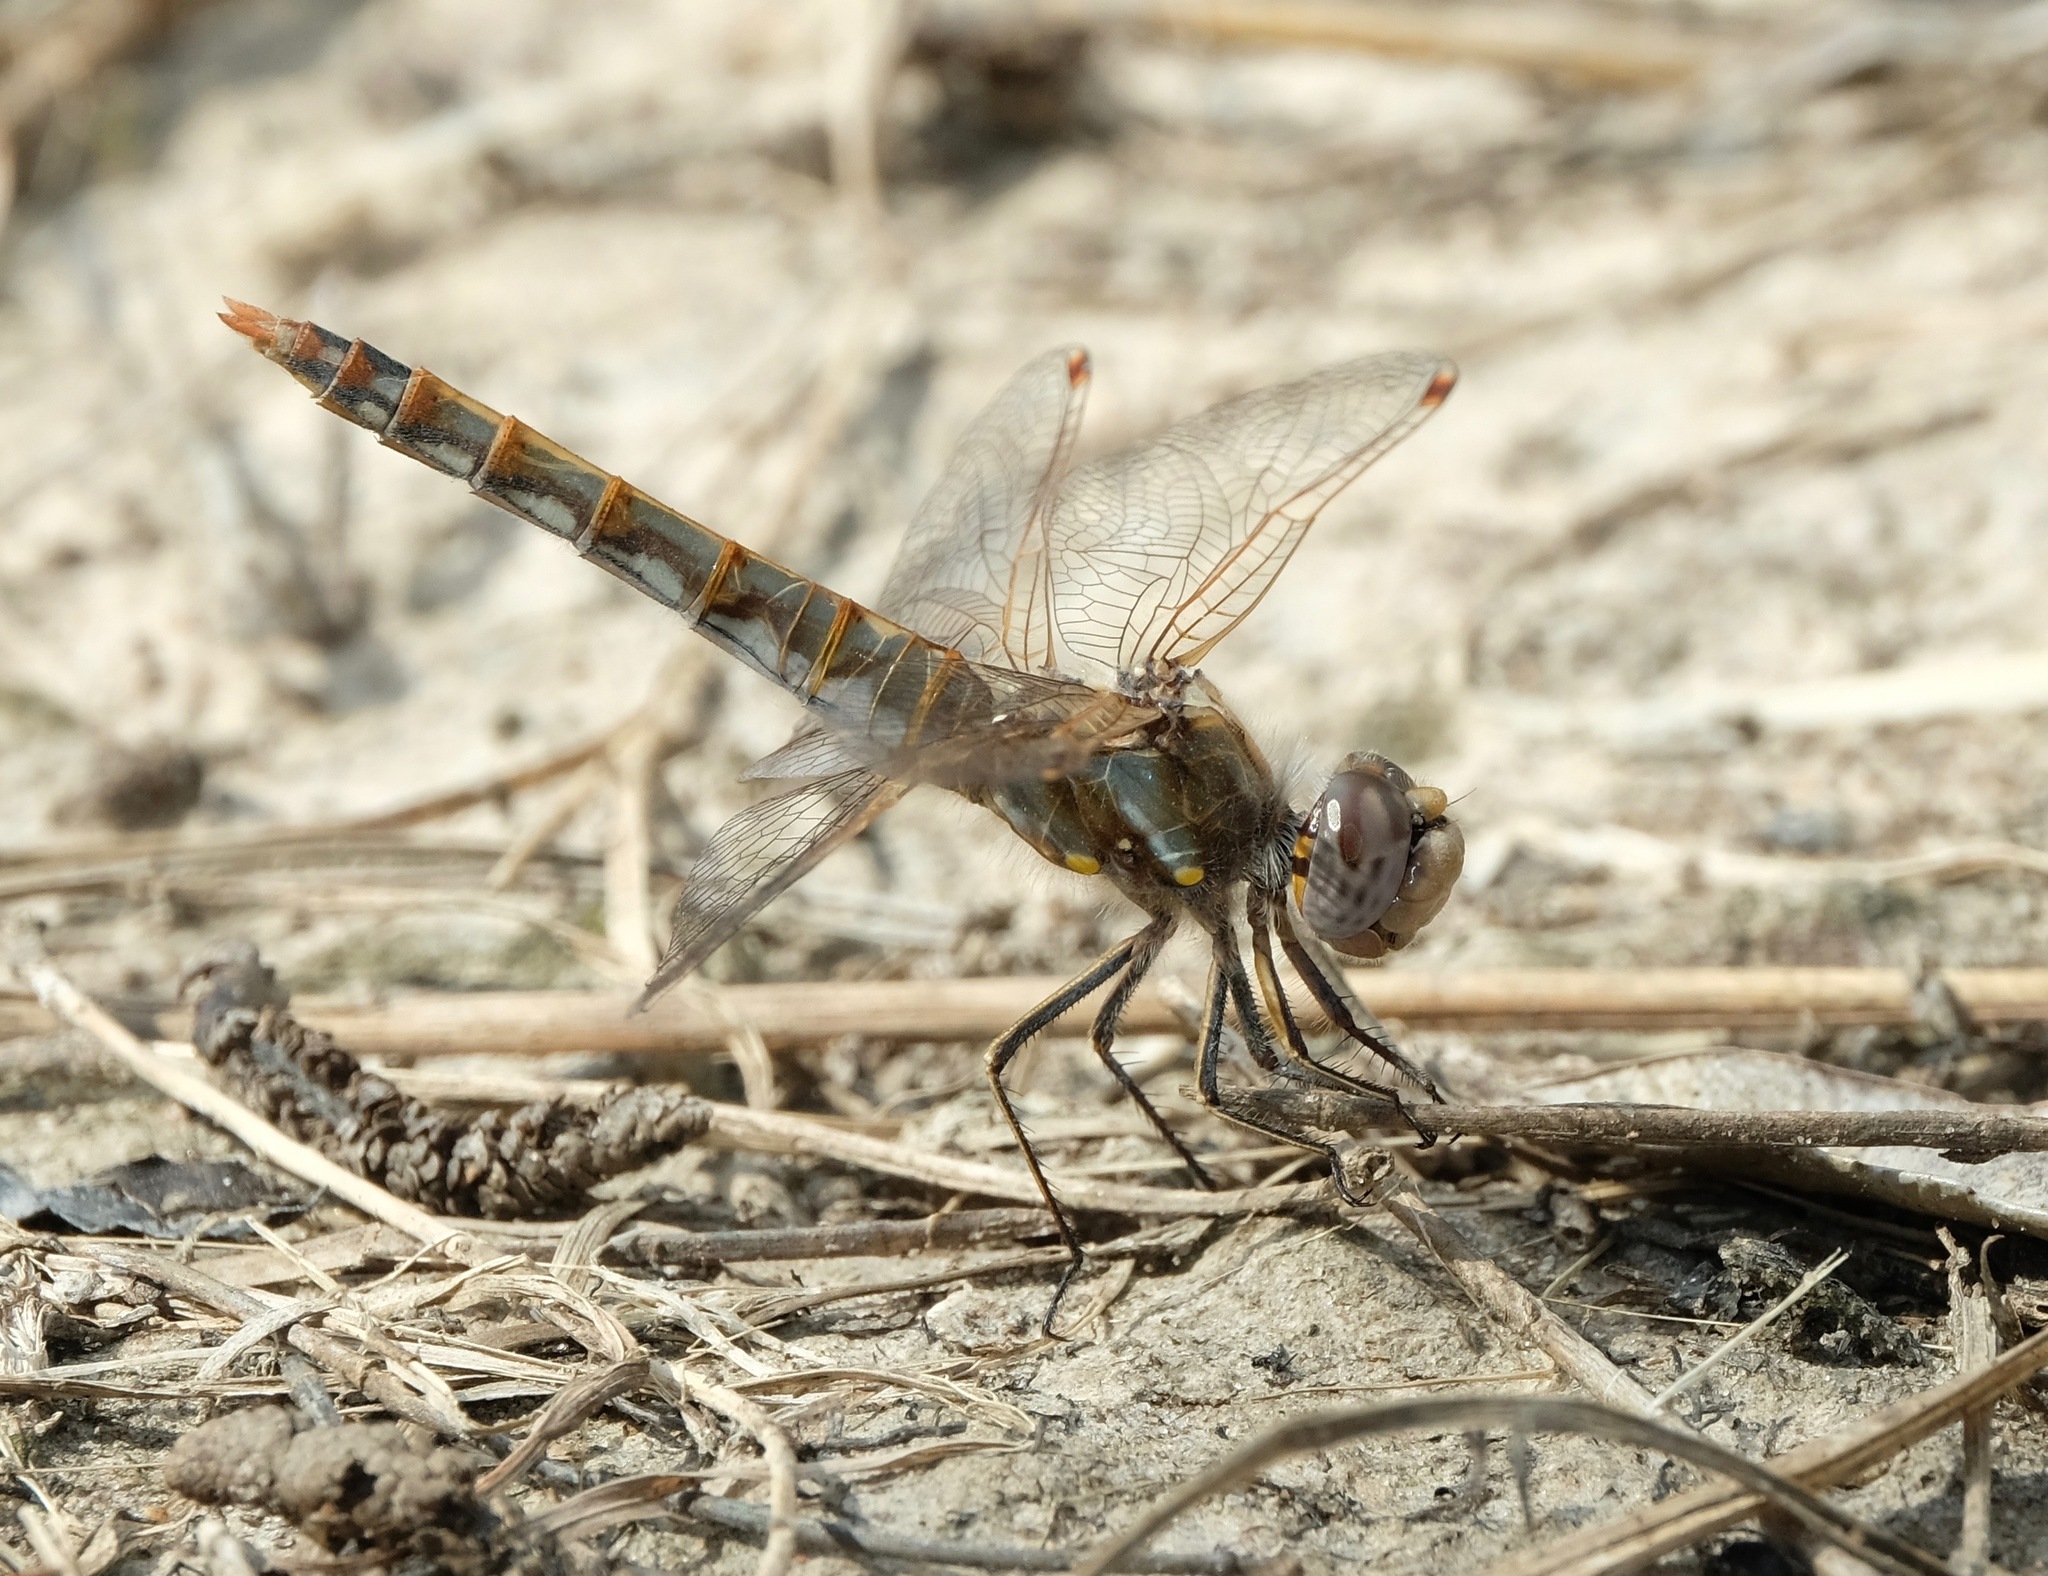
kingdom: Animalia
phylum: Arthropoda
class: Insecta
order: Odonata
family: Libellulidae
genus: Sympetrum
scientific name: Sympetrum corruptum
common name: Variegated meadowhawk
